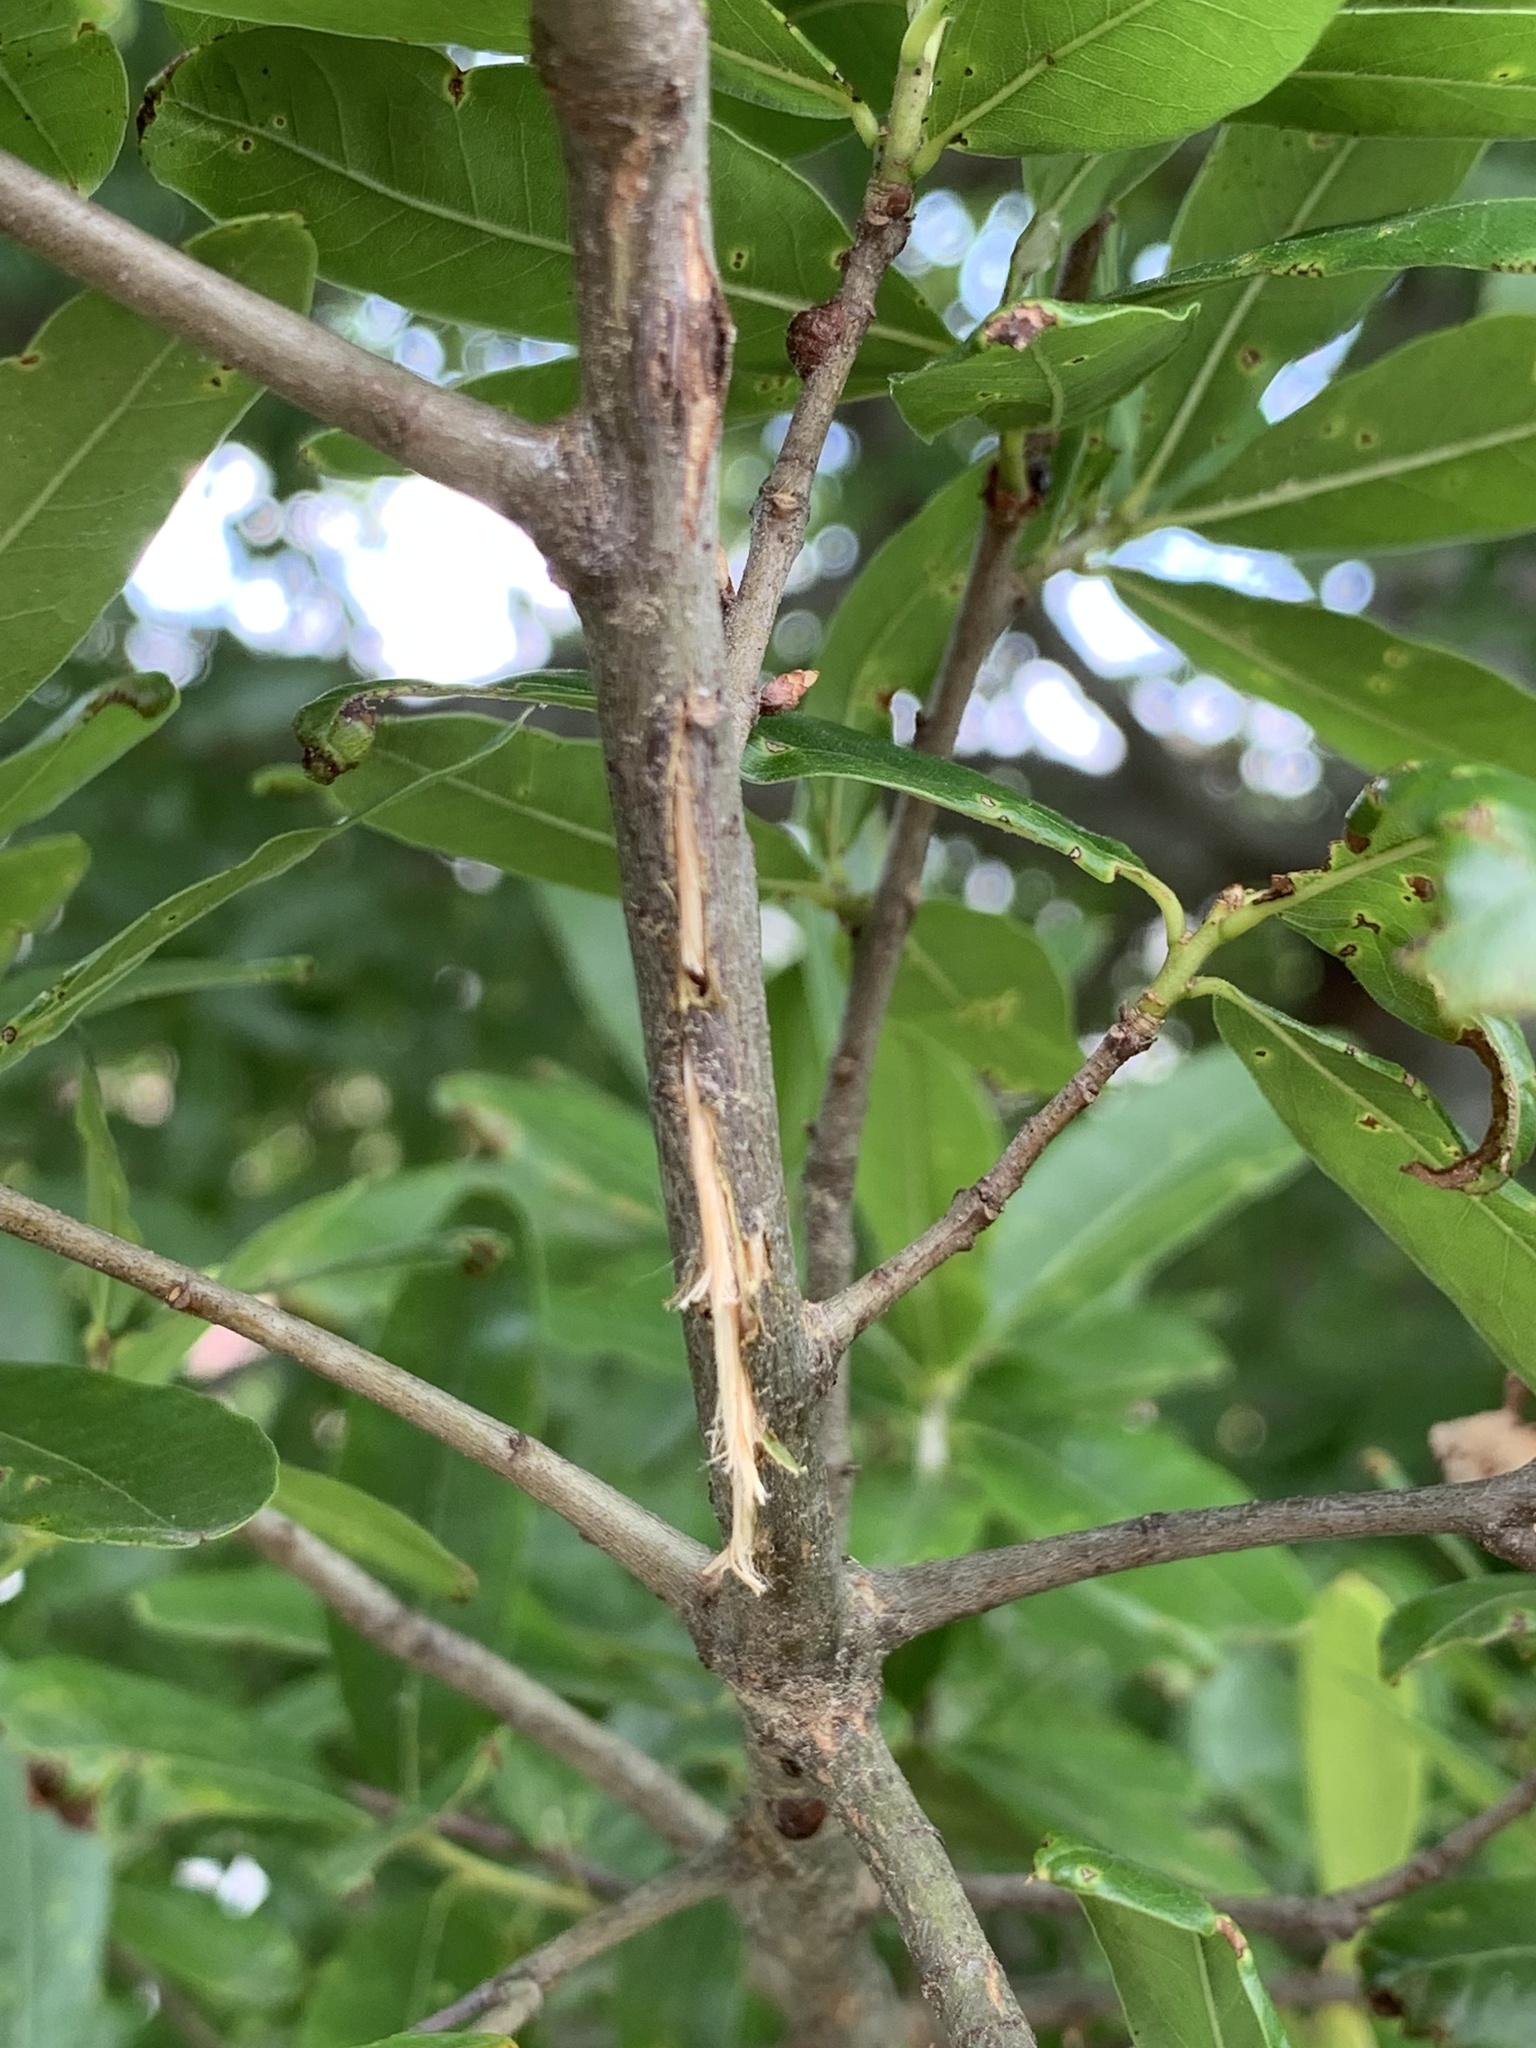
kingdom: Animalia
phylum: Arthropoda
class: Insecta
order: Hemiptera
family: Cicadidae
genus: Magicicada
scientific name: Magicicada
